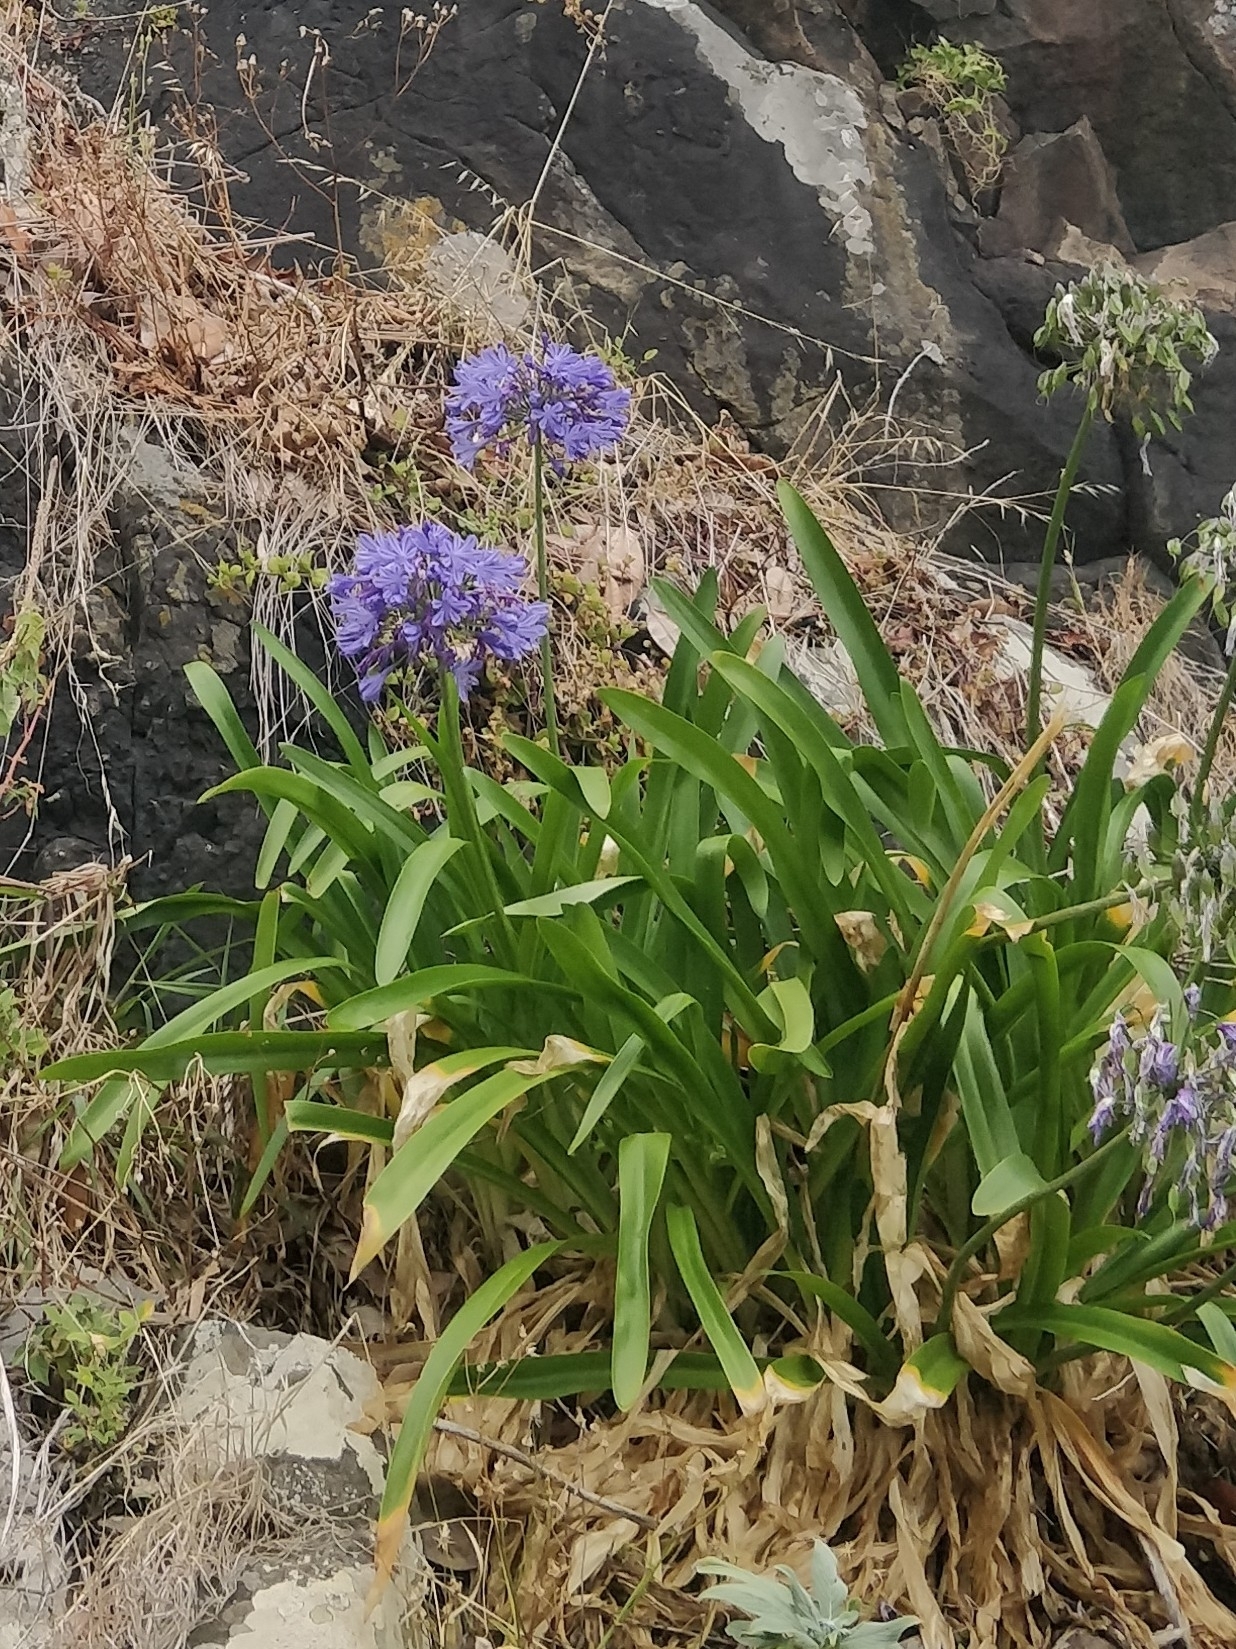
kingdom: Plantae
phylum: Tracheophyta
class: Liliopsida
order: Asparagales
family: Amaryllidaceae
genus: Agapanthus
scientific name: Agapanthus praecox
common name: African-lily
